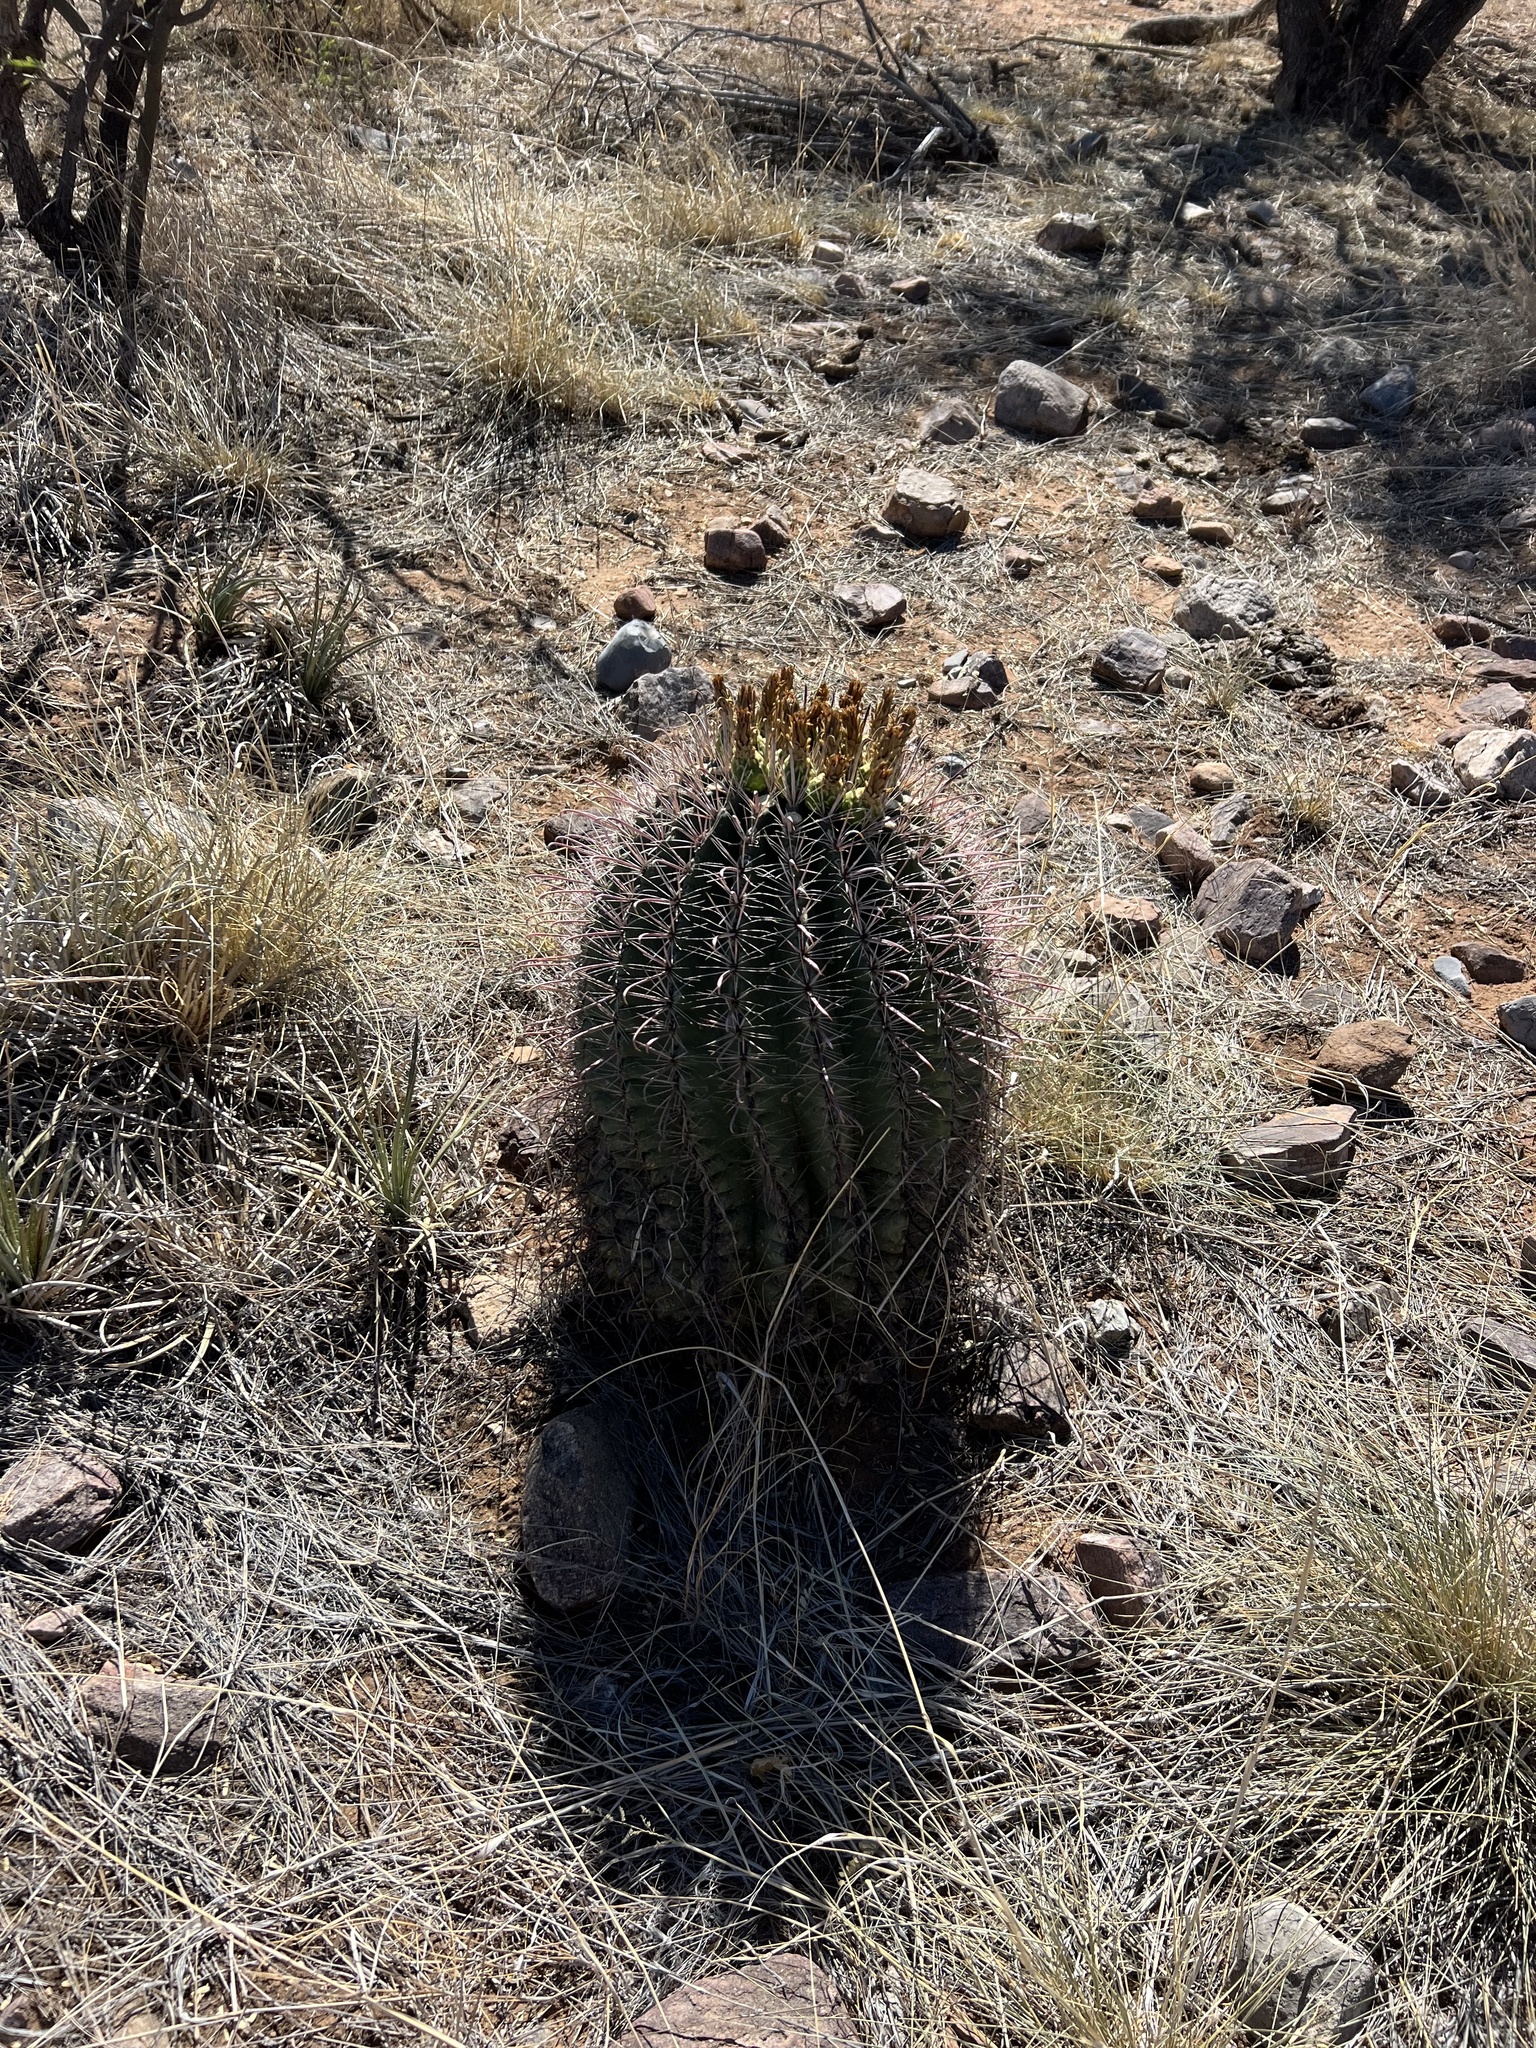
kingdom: Plantae
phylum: Tracheophyta
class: Magnoliopsida
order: Caryophyllales
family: Cactaceae
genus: Ferocactus
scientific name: Ferocactus wislizeni
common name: Candy barrel cactus
